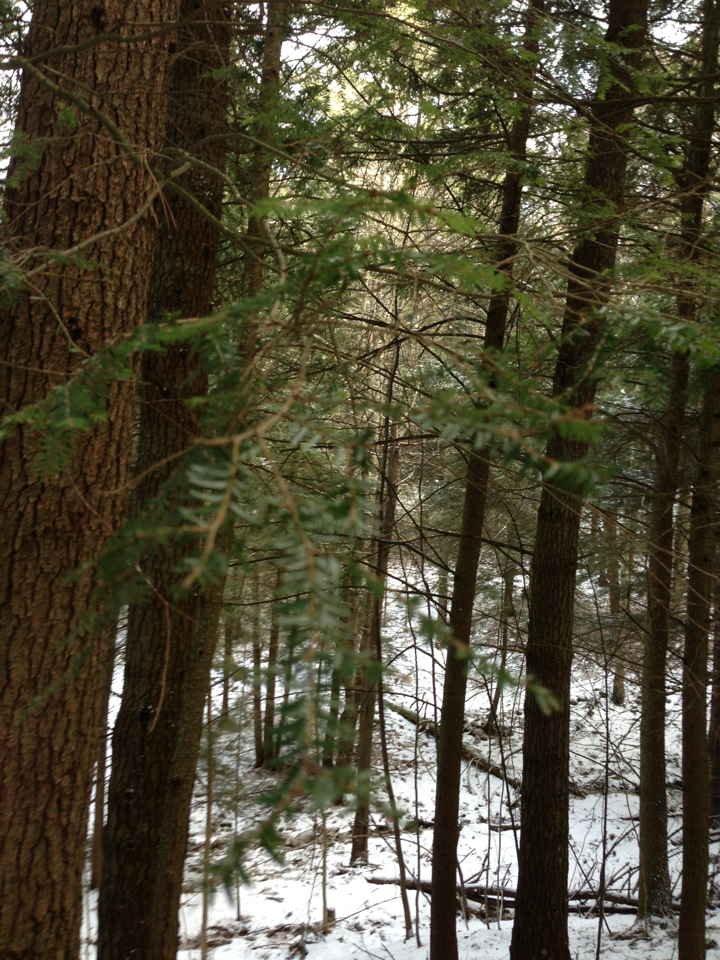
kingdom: Plantae
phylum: Tracheophyta
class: Pinopsida
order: Pinales
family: Pinaceae
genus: Tsuga
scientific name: Tsuga canadensis
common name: Eastern hemlock
